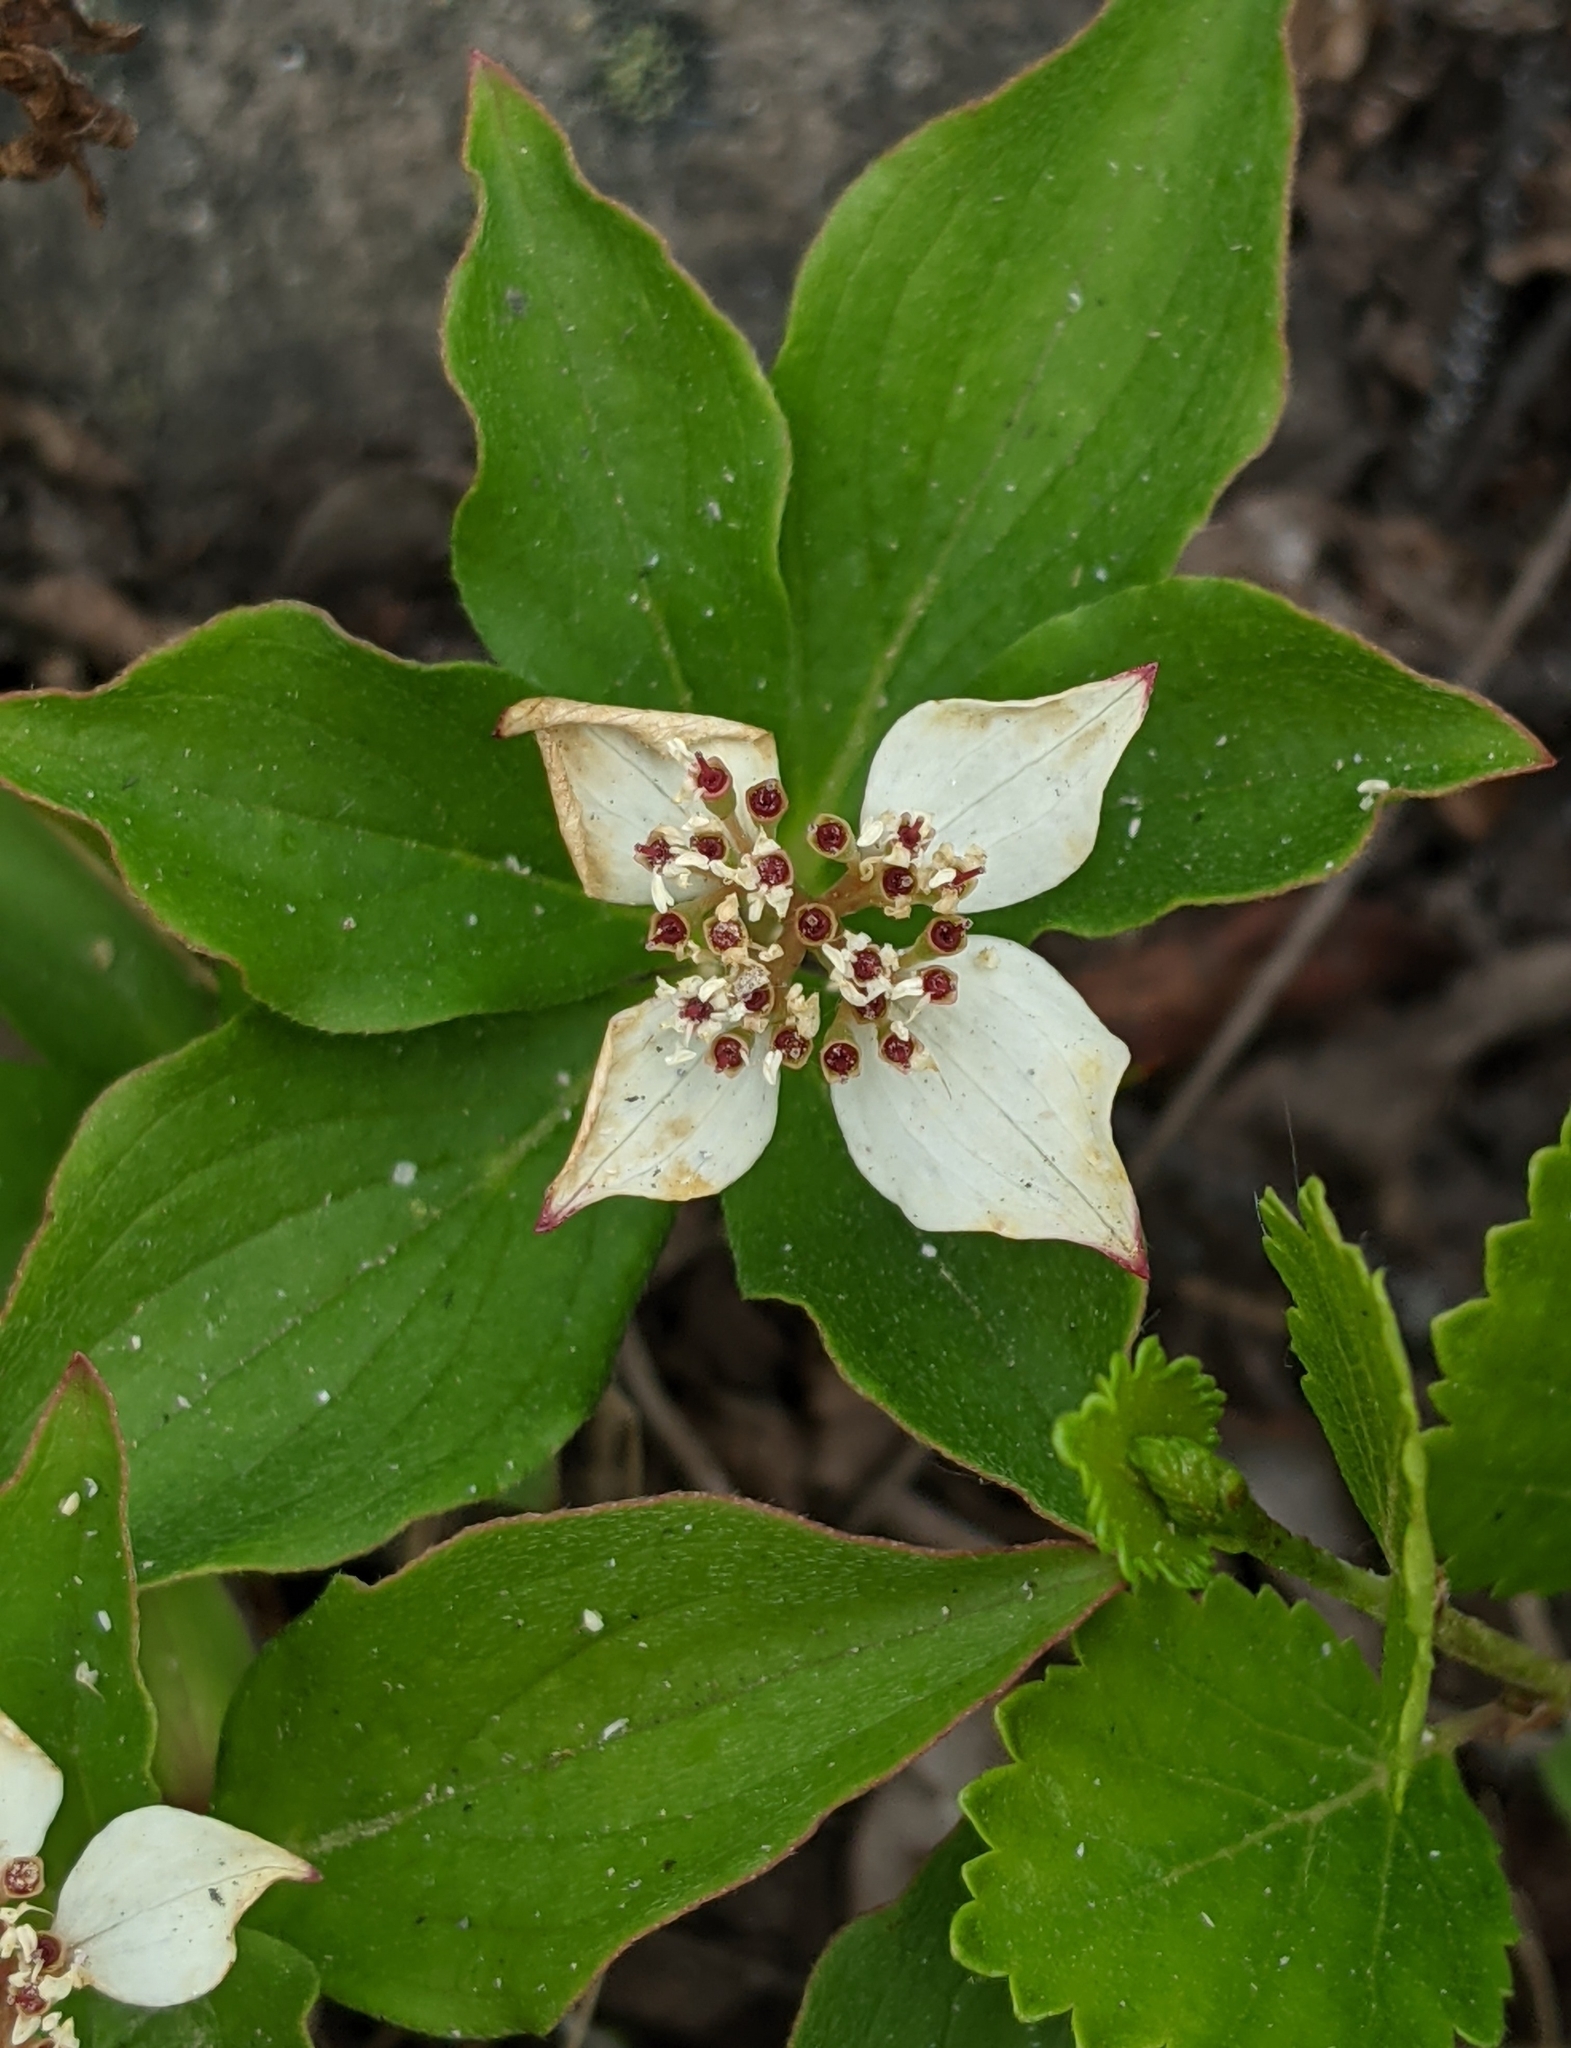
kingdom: Plantae
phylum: Tracheophyta
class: Magnoliopsida
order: Cornales
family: Cornaceae
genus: Cornus
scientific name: Cornus canadensis
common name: Creeping dogwood
